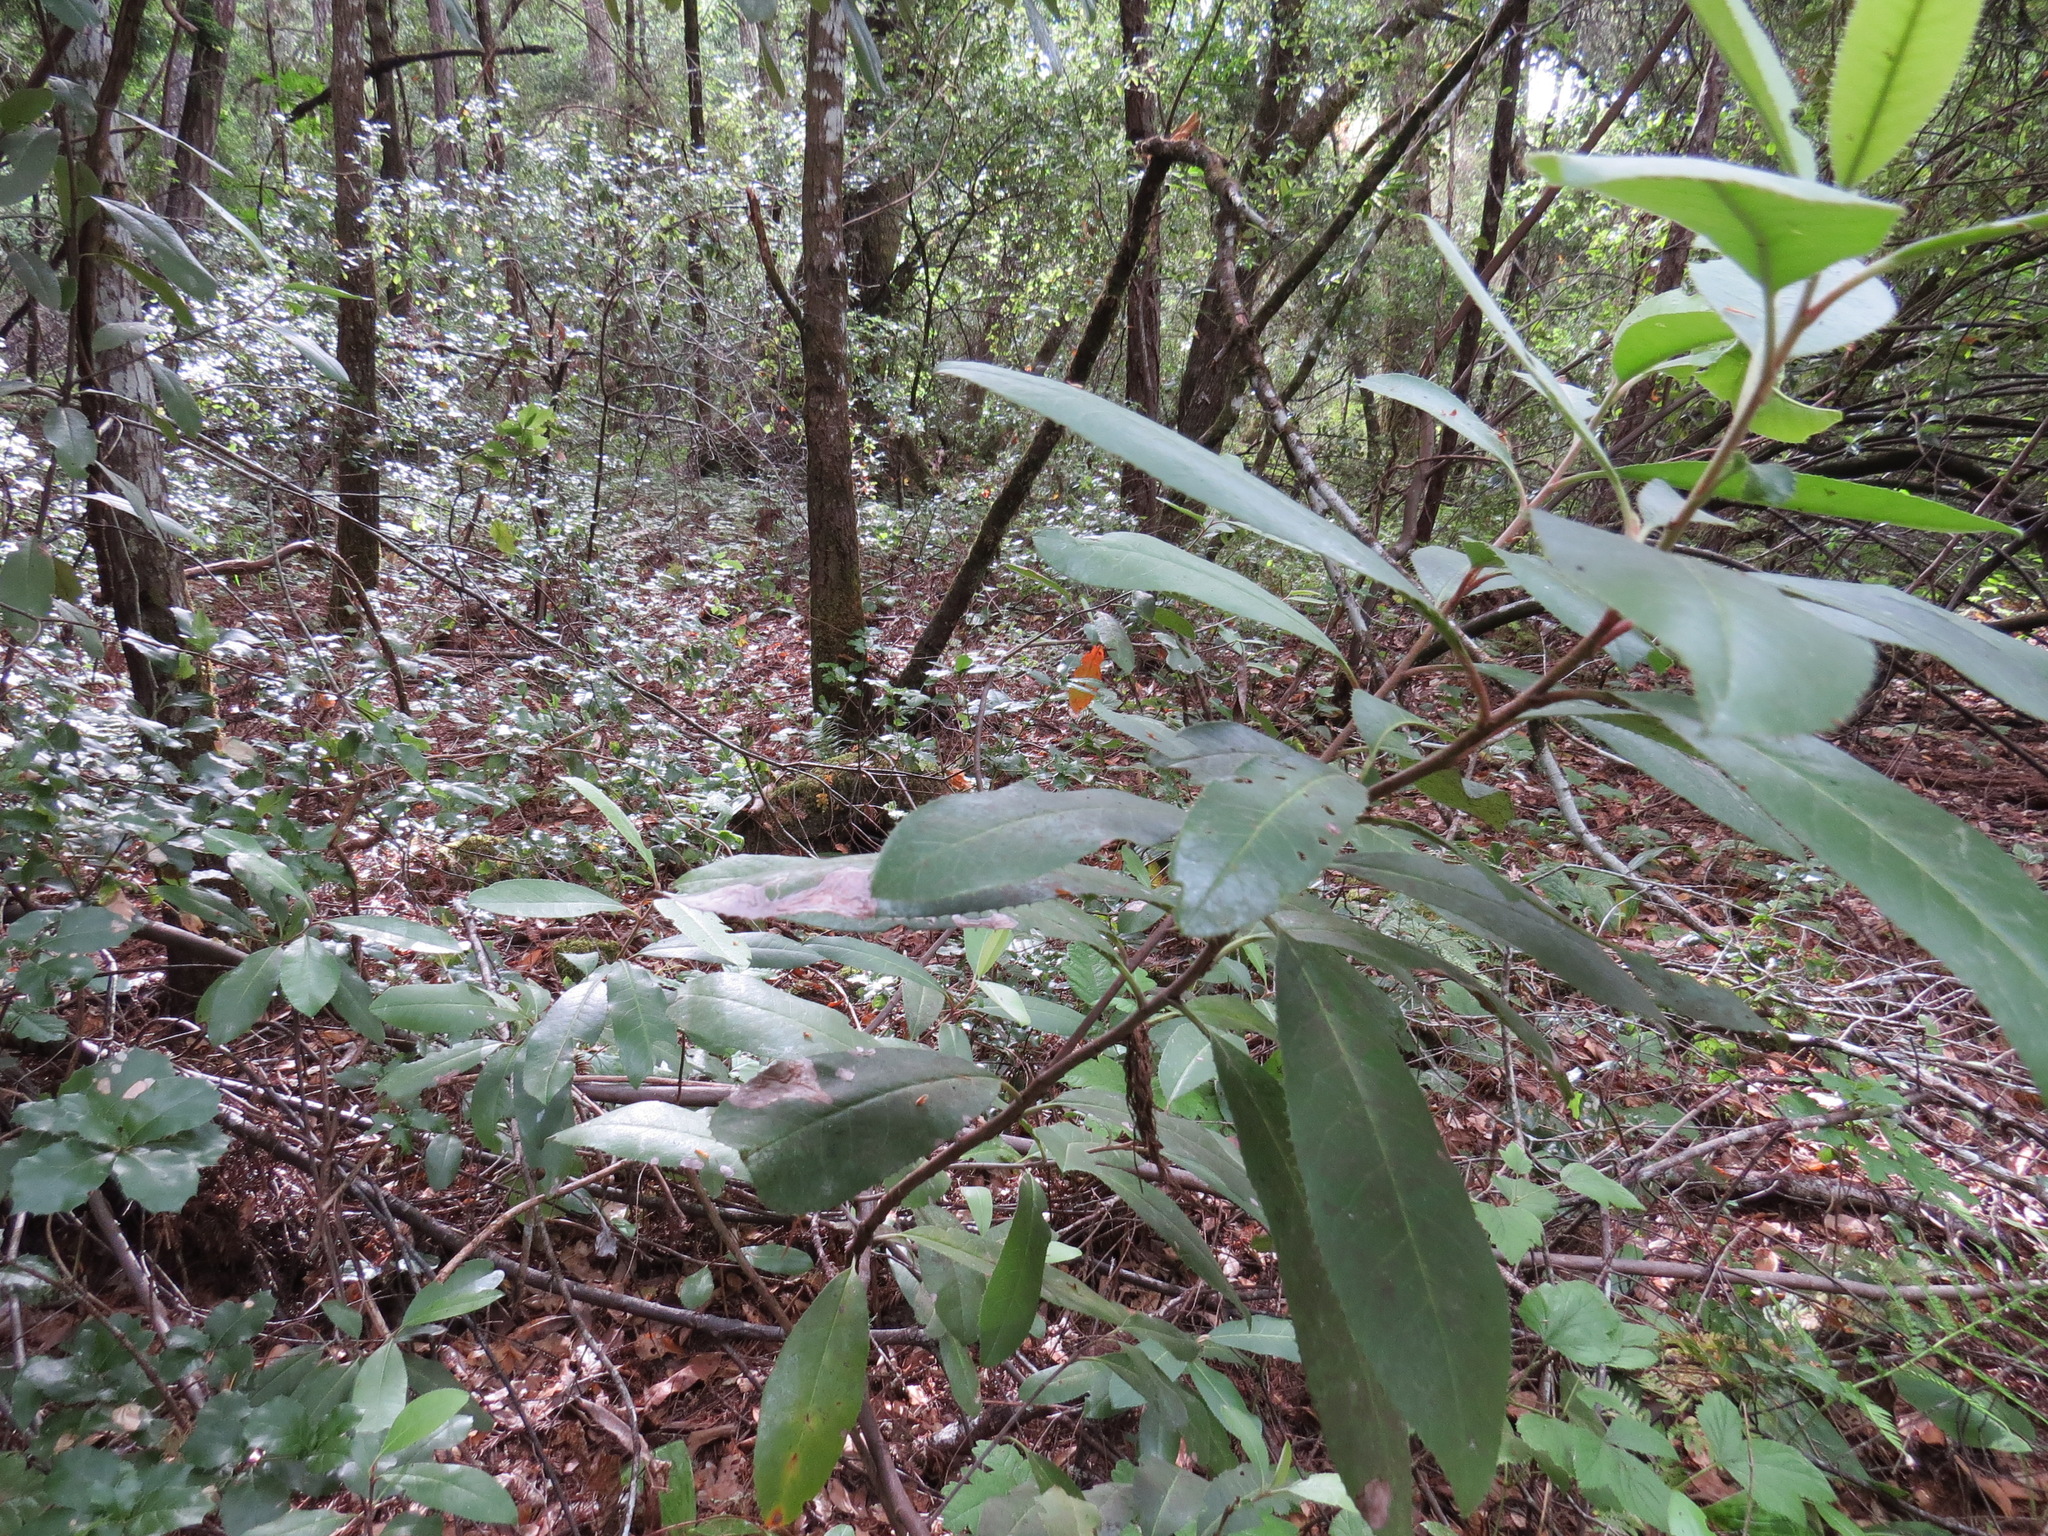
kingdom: Animalia
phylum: Arthropoda
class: Insecta
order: Lepidoptera
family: Nepticulidae
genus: Stigmella
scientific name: Stigmella heteromelis
